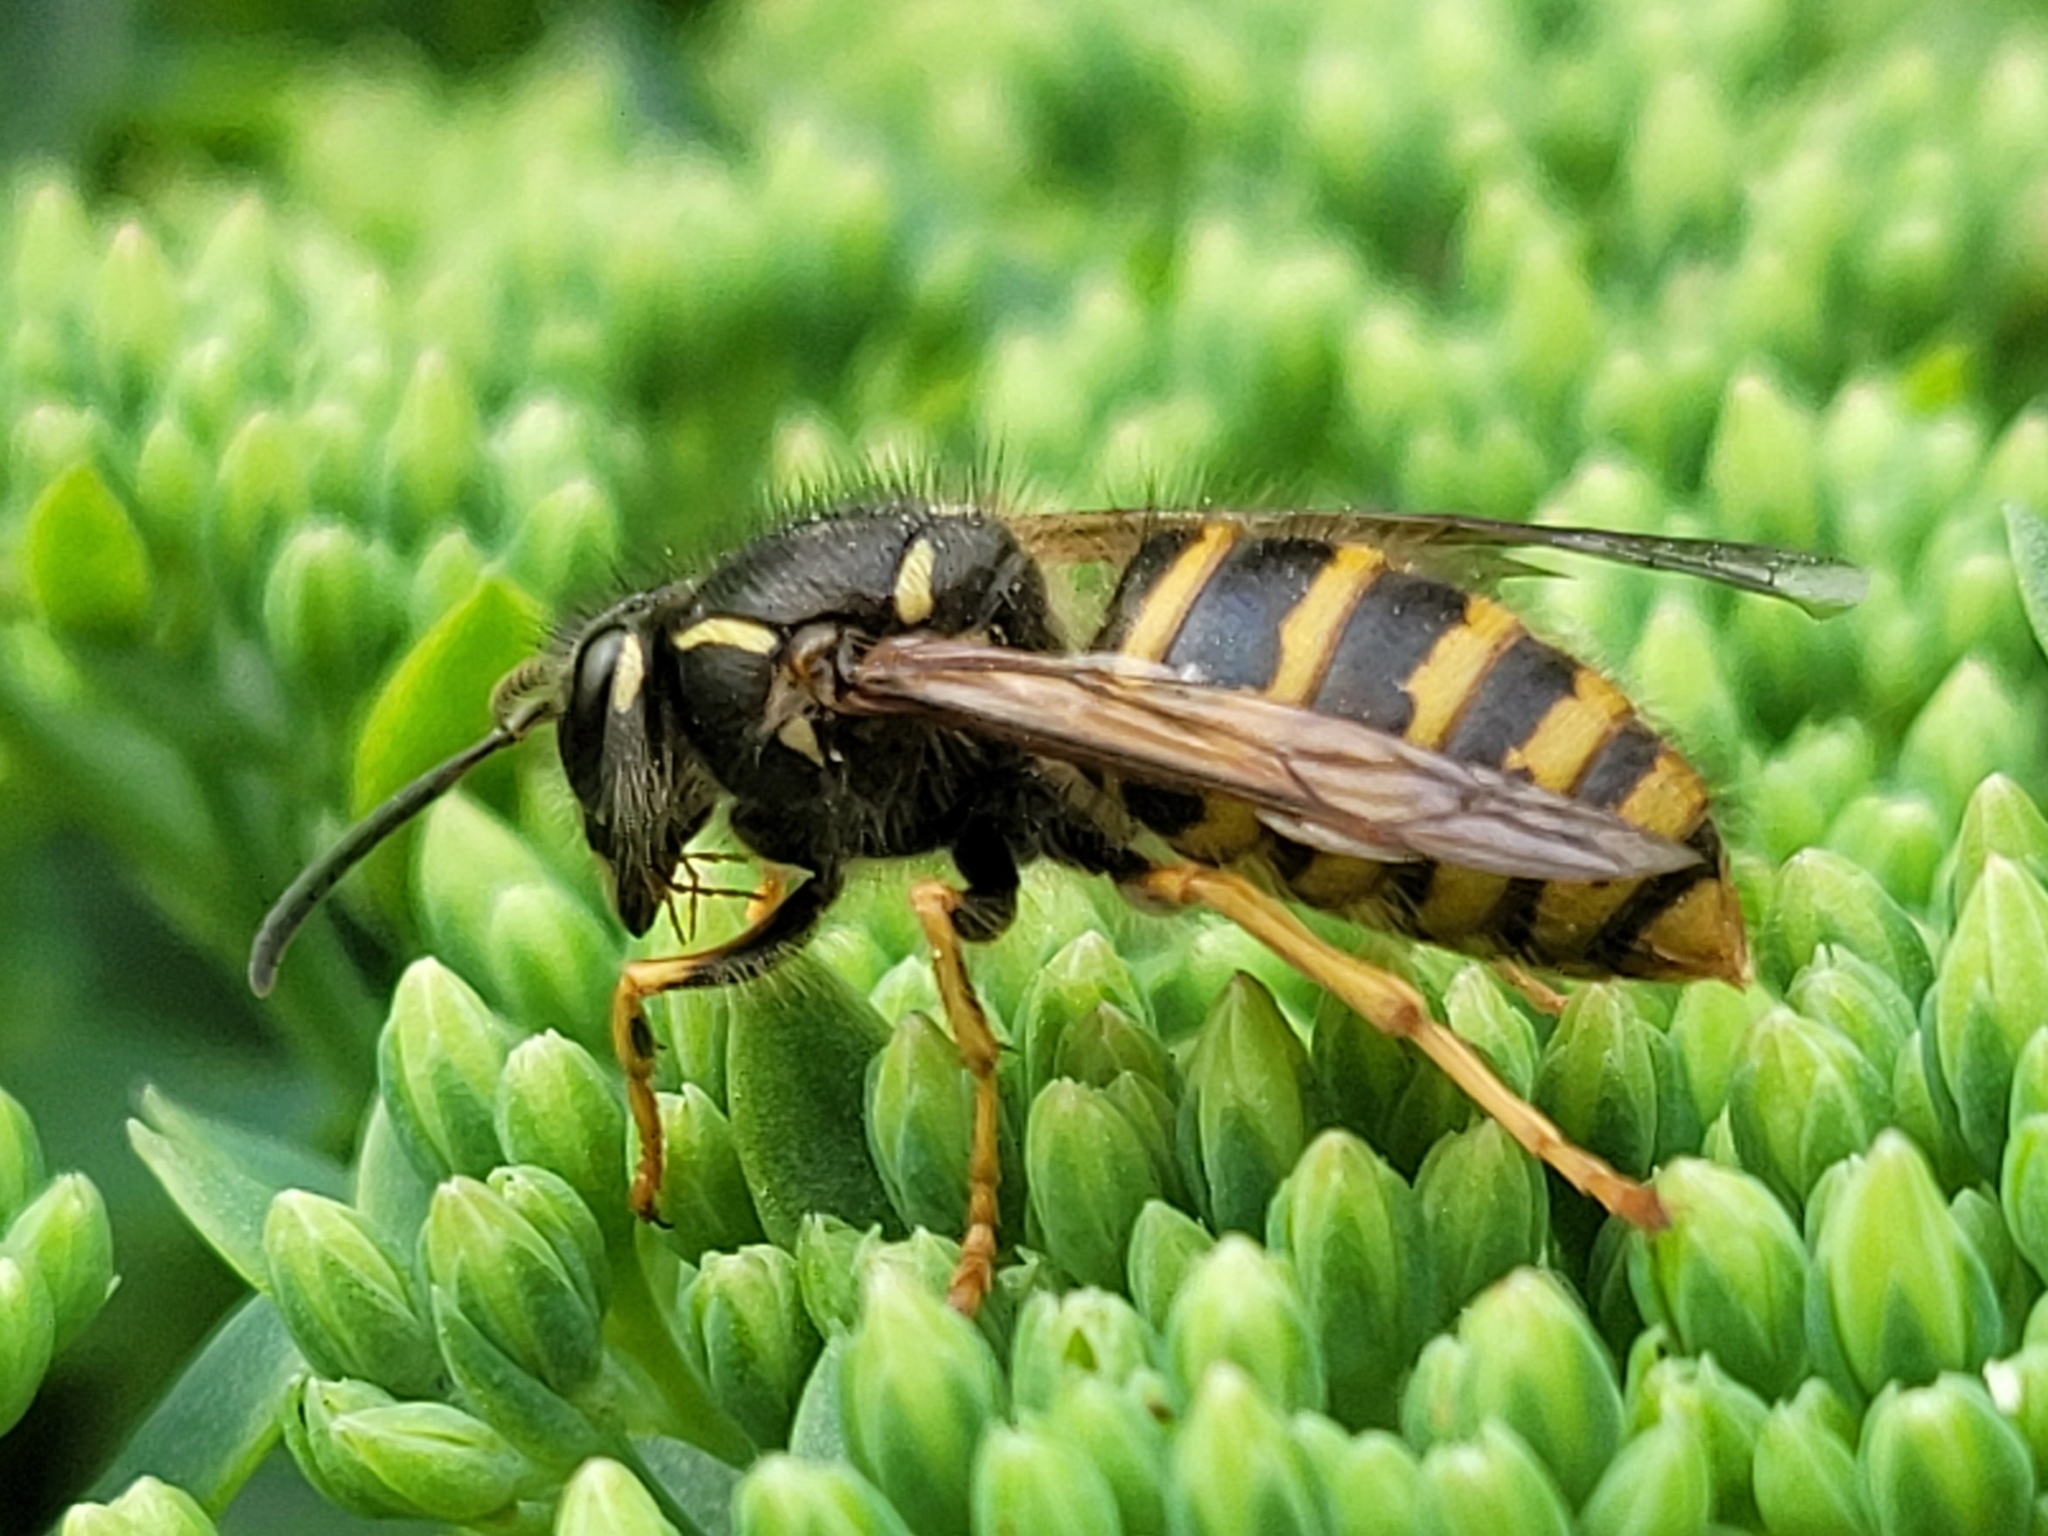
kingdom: Animalia
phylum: Arthropoda
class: Insecta
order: Hymenoptera
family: Vespidae
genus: Dolichovespula
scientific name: Dolichovespula saxonica
